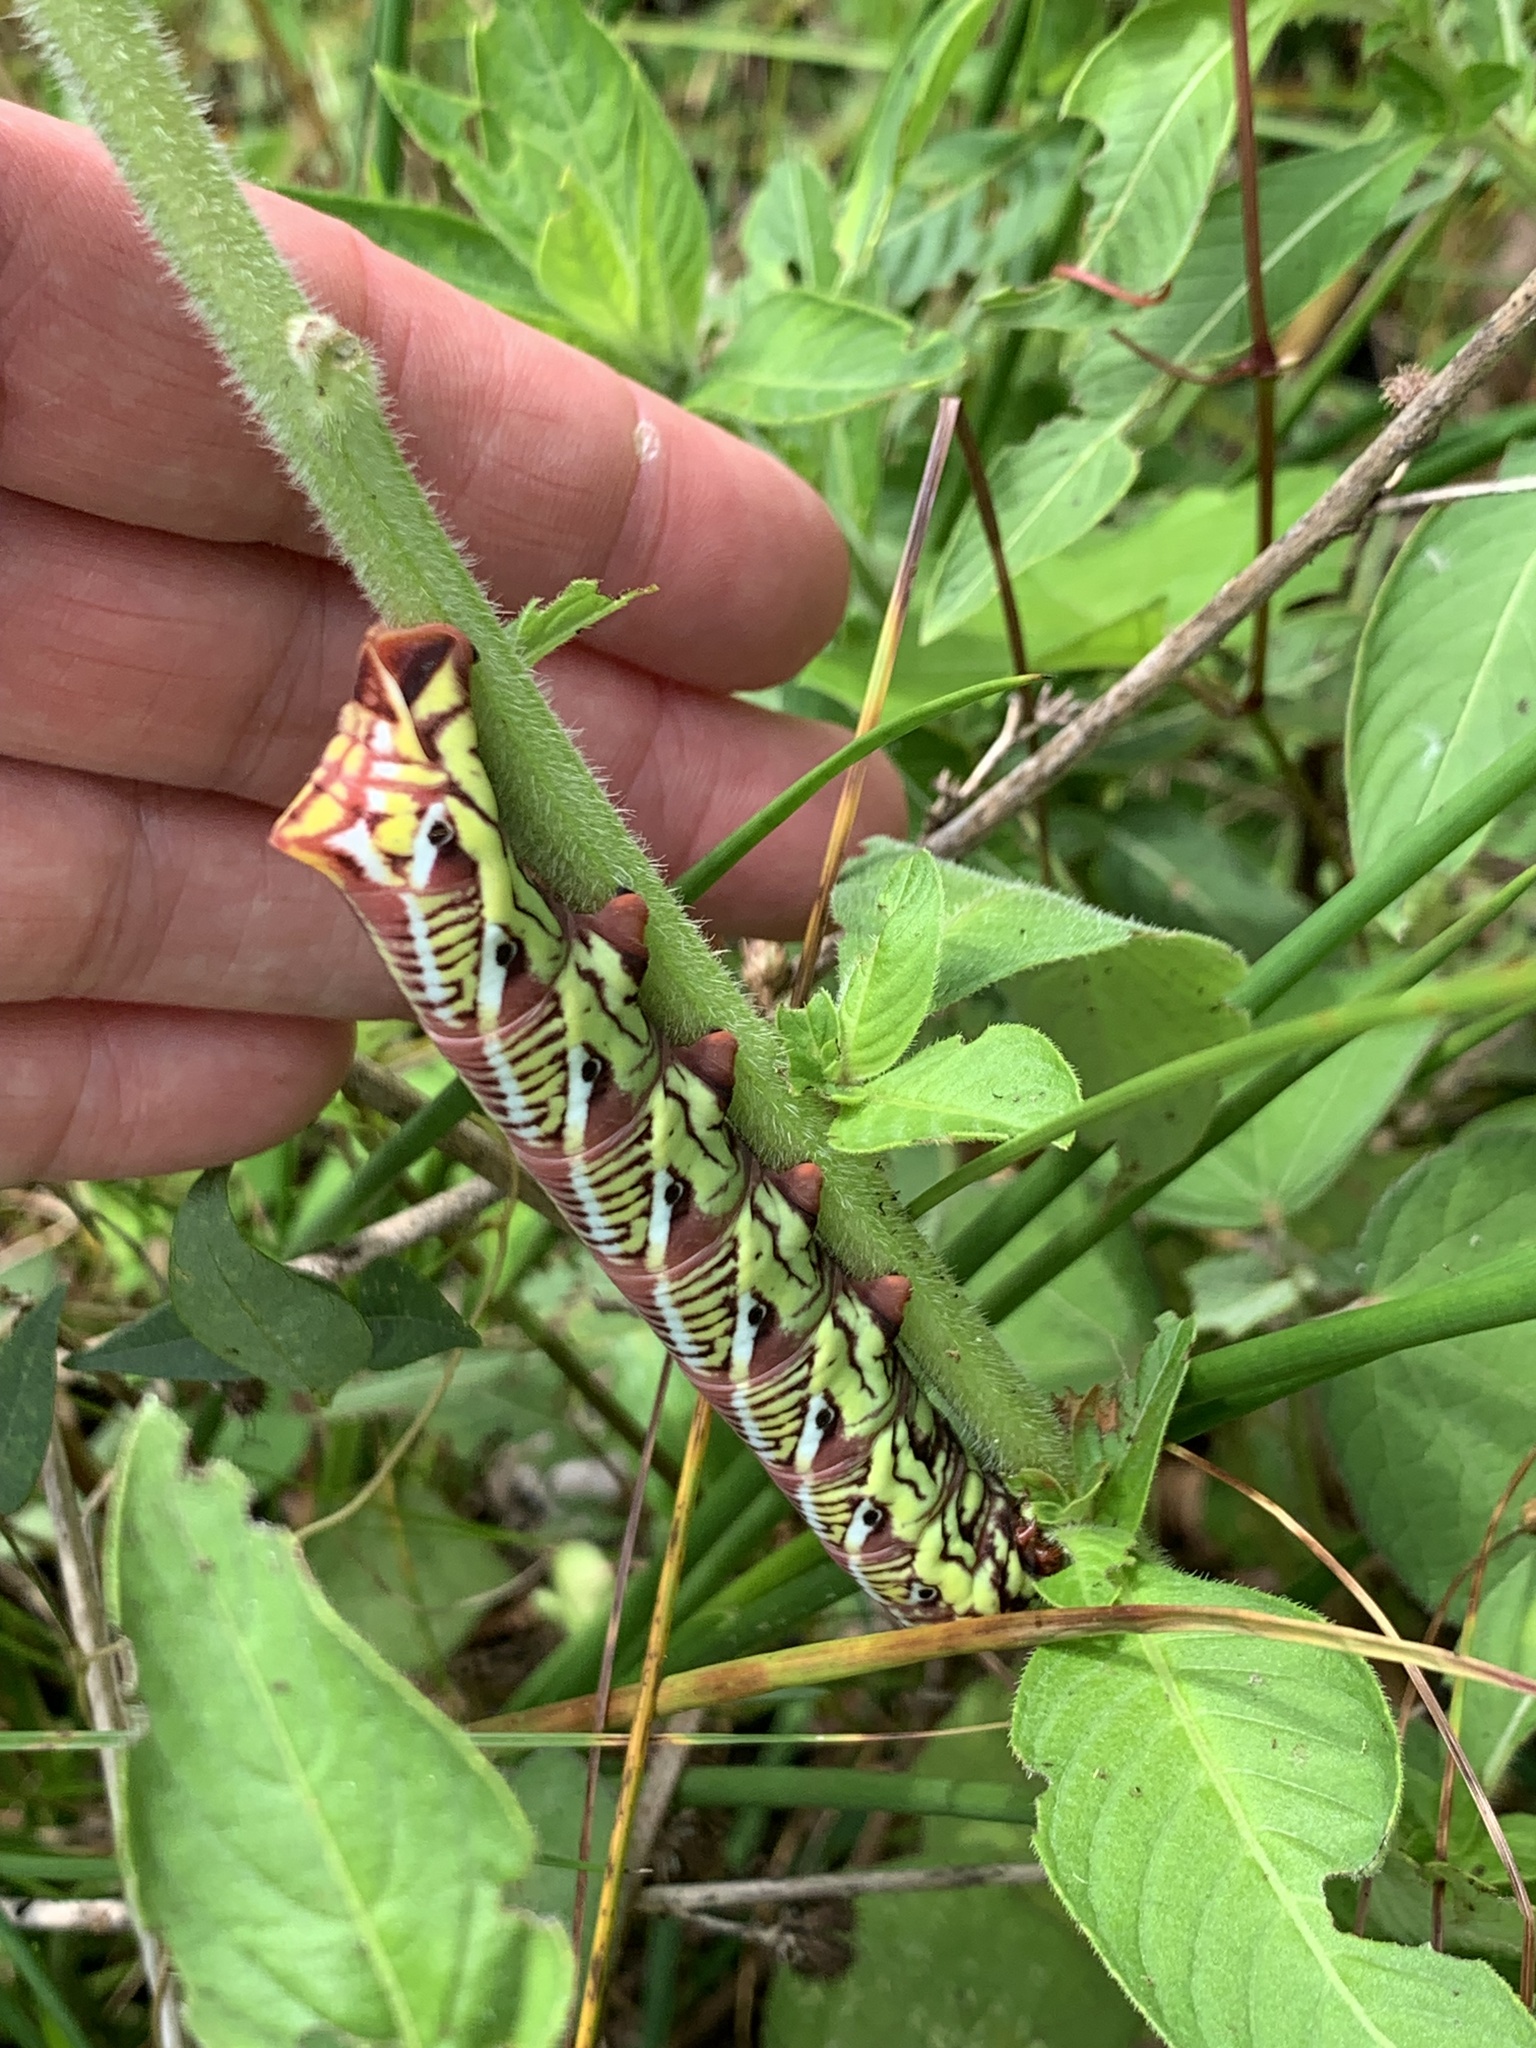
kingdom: Animalia
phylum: Arthropoda
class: Insecta
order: Lepidoptera
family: Sphingidae
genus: Eumorpha
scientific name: Eumorpha fasciatus
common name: Banded sphinx
